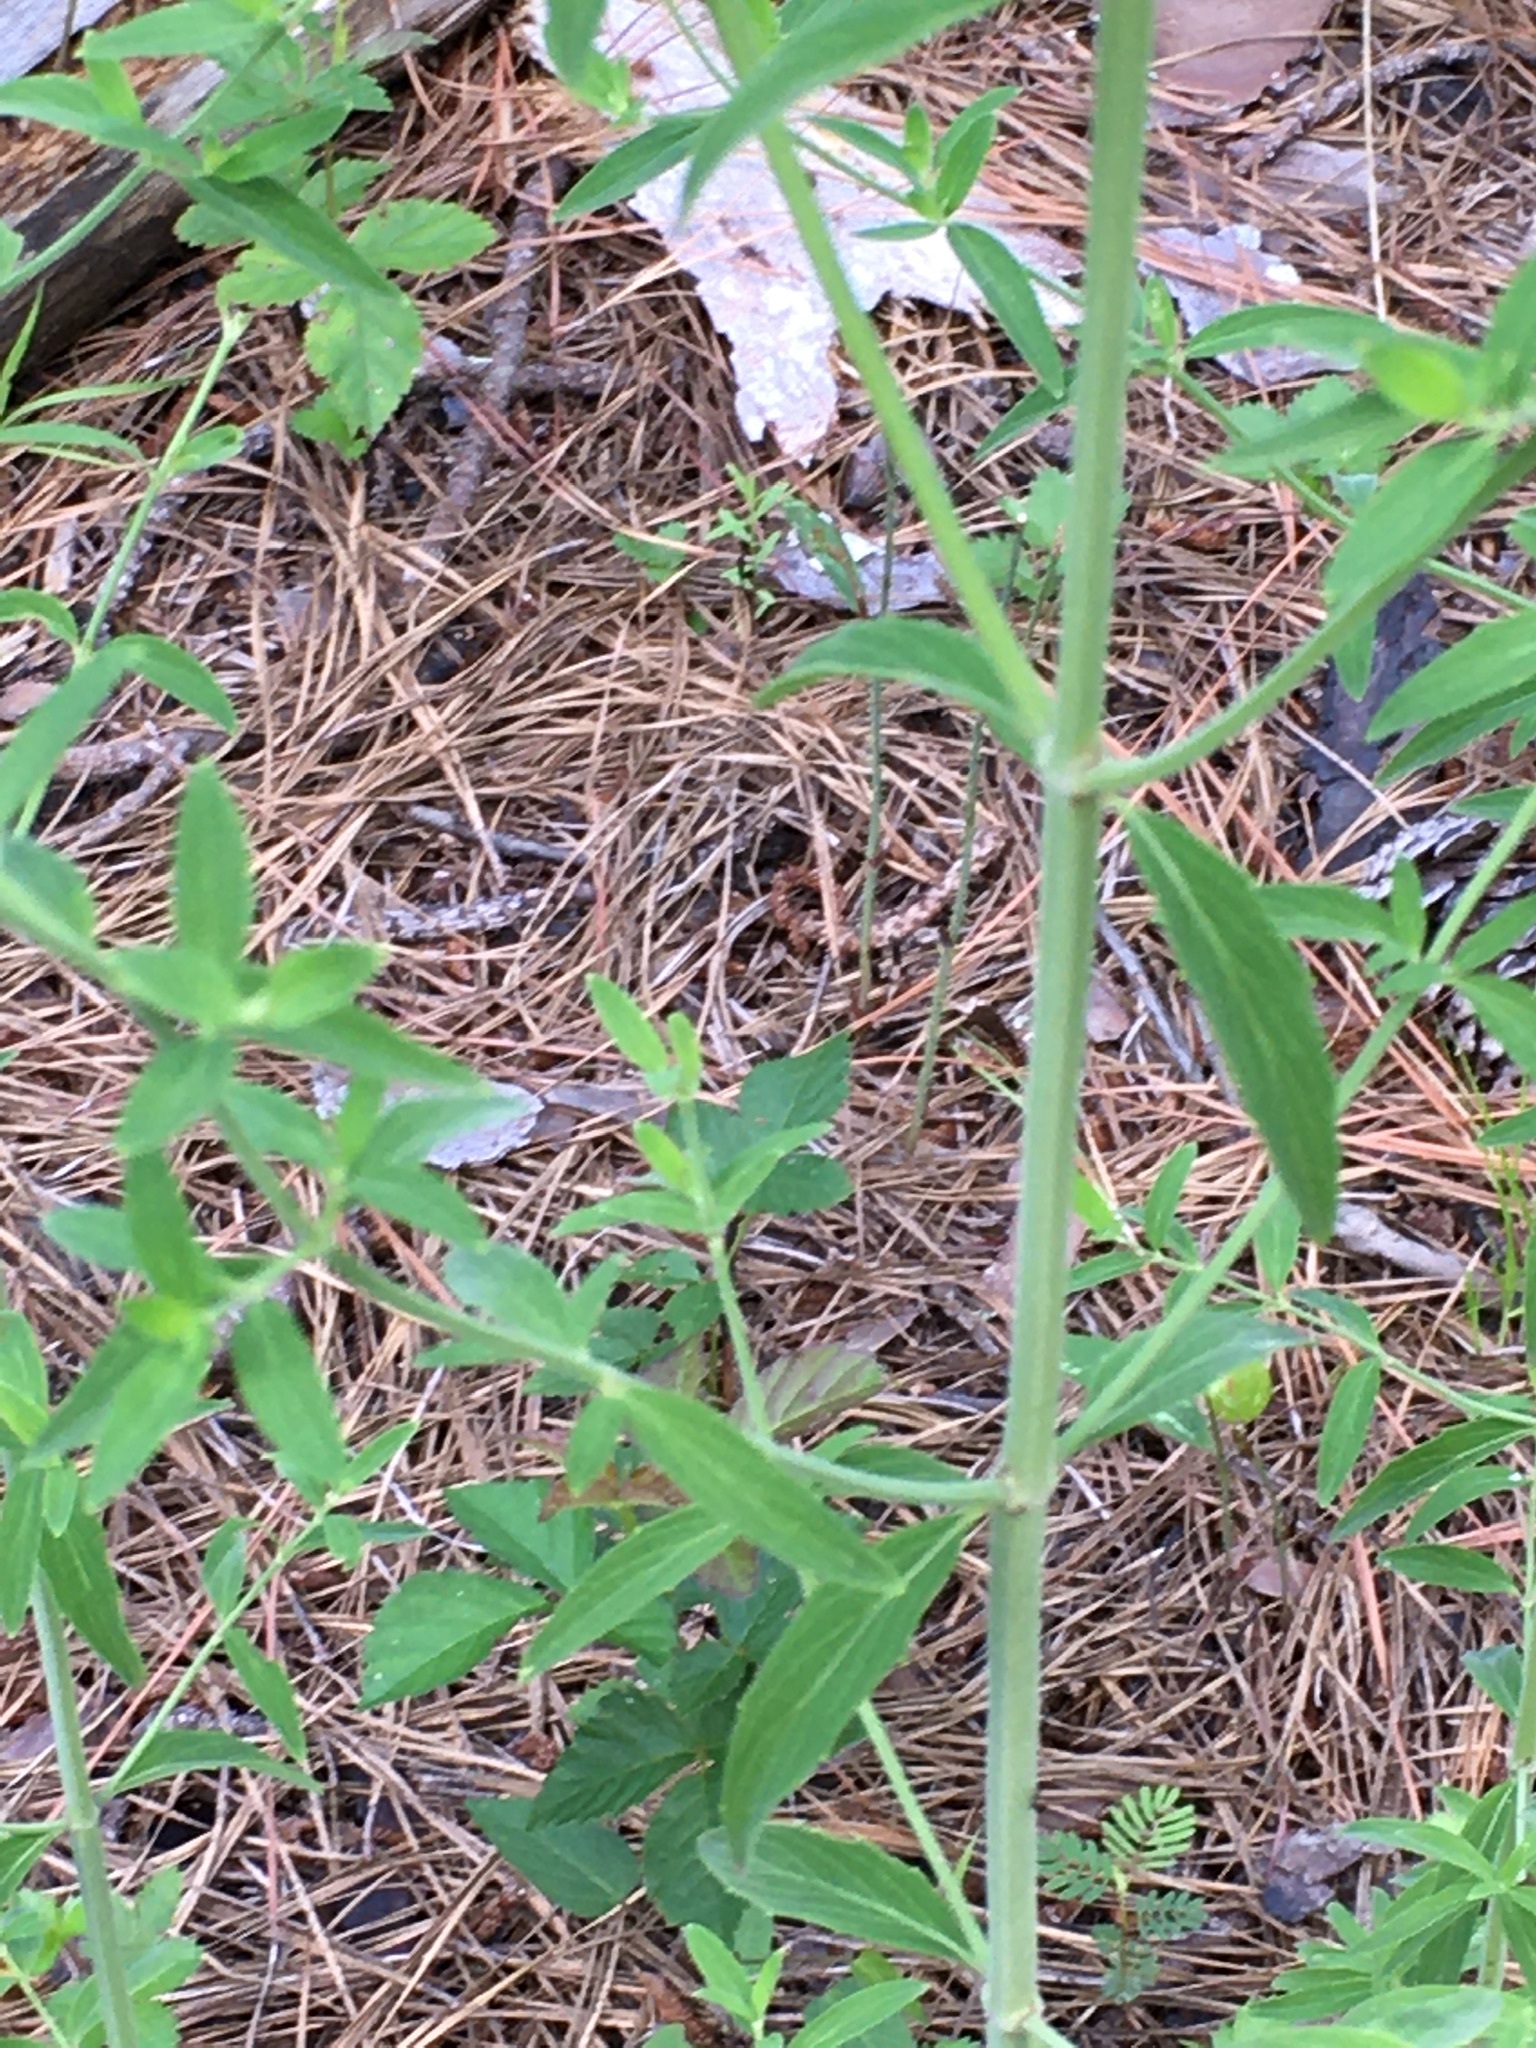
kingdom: Plantae
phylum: Tracheophyta
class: Magnoliopsida
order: Lamiales
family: Lamiaceae
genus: Pycnanthemum
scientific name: Pycnanthemum flexuosum
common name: Appalachian mountain-mint
